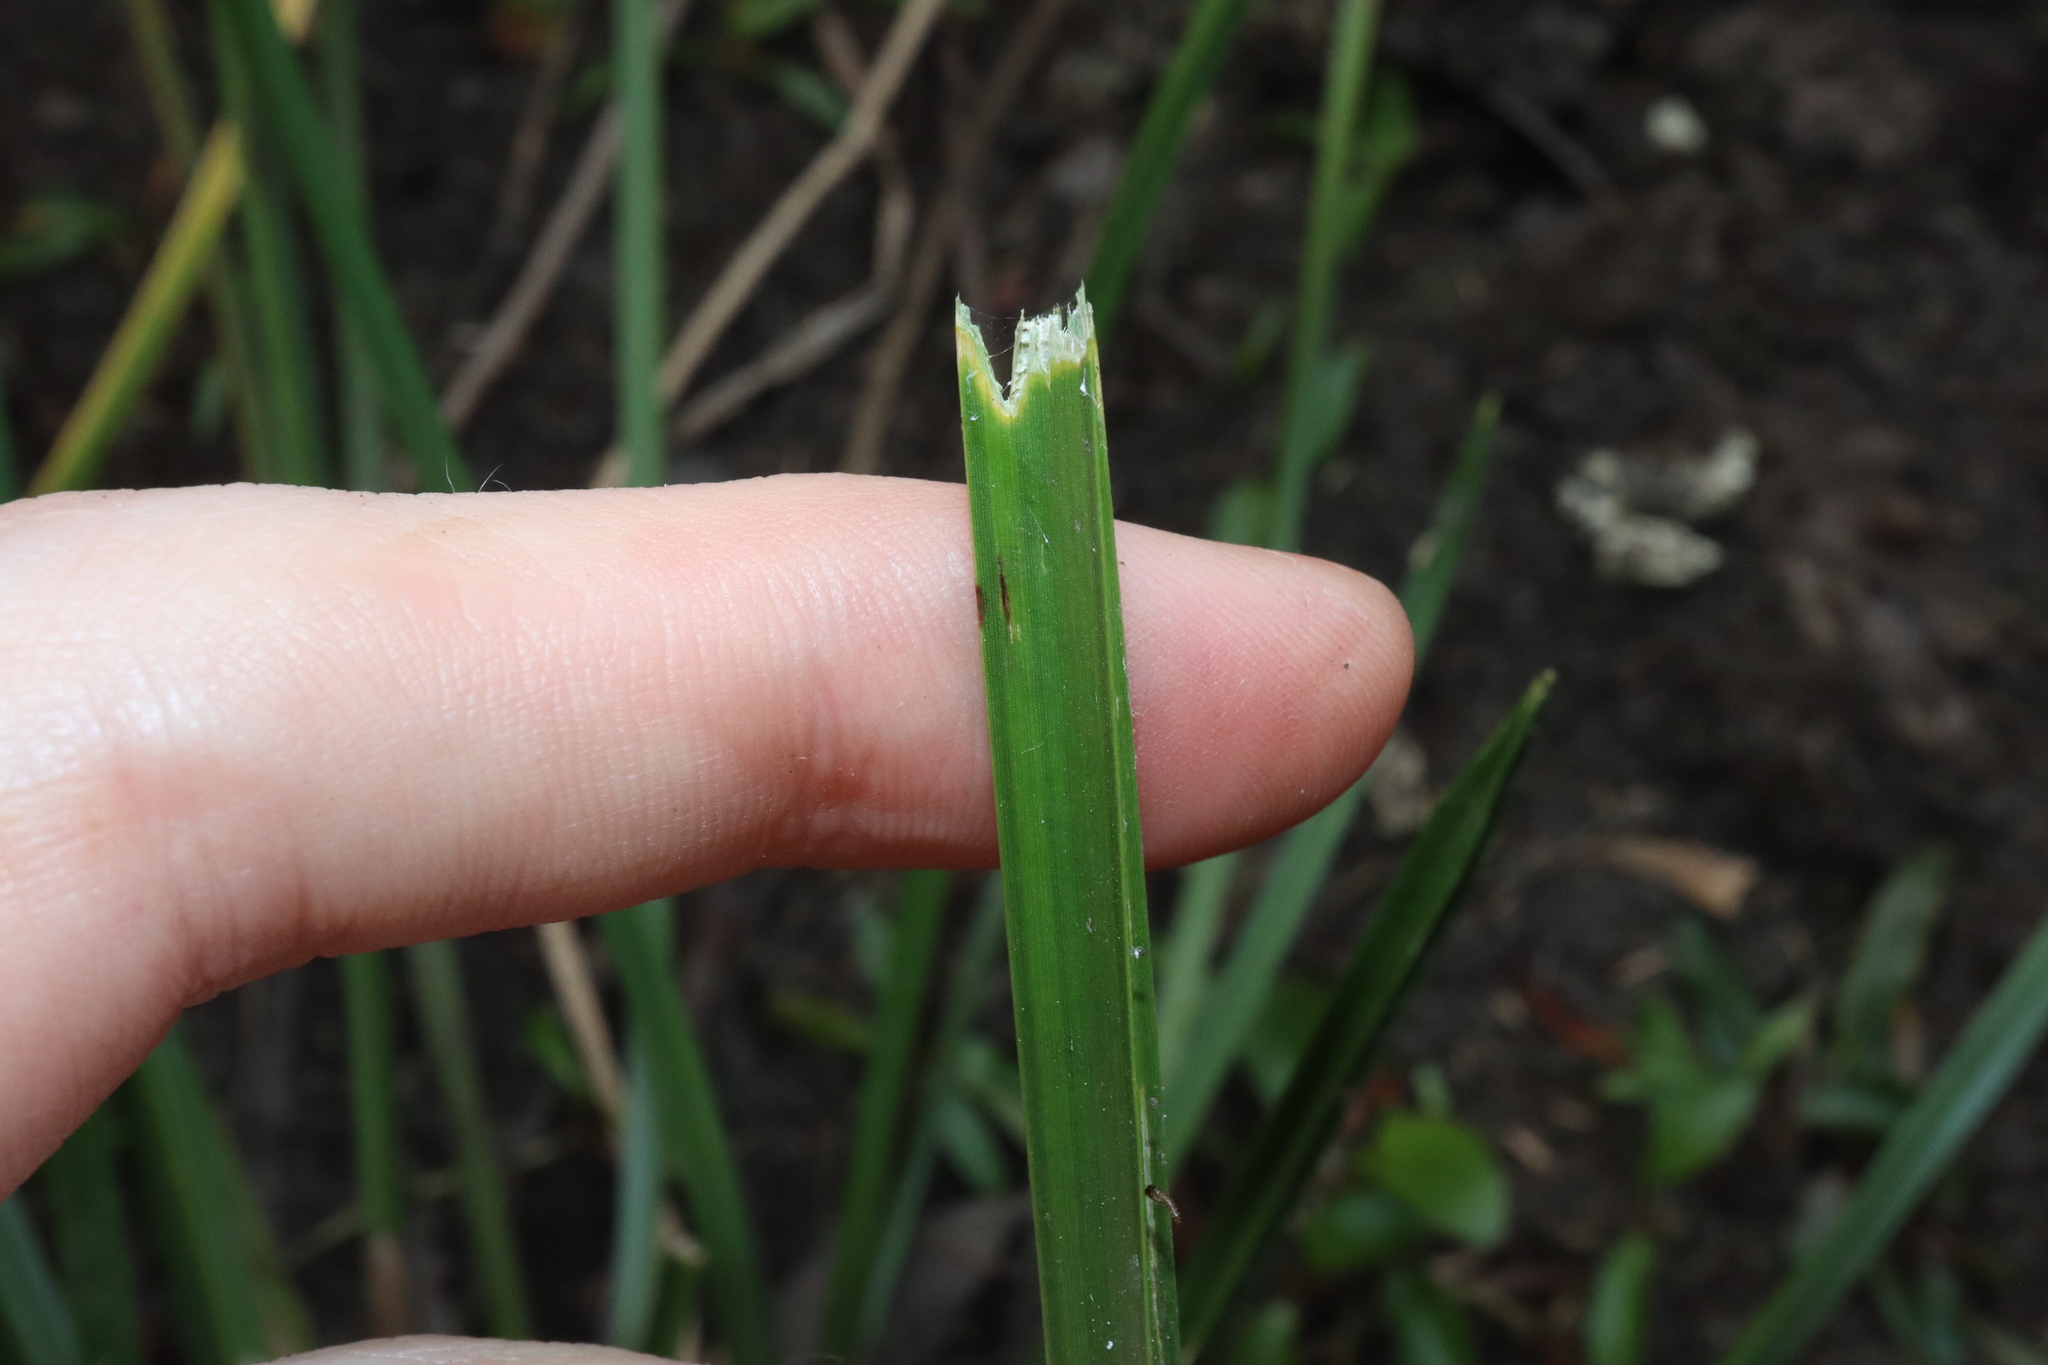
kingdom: Plantae
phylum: Tracheophyta
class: Liliopsida
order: Poales
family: Cyperaceae
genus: Schoenoplectiella
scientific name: Schoenoplectiella mucronata
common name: Bog bulrush
